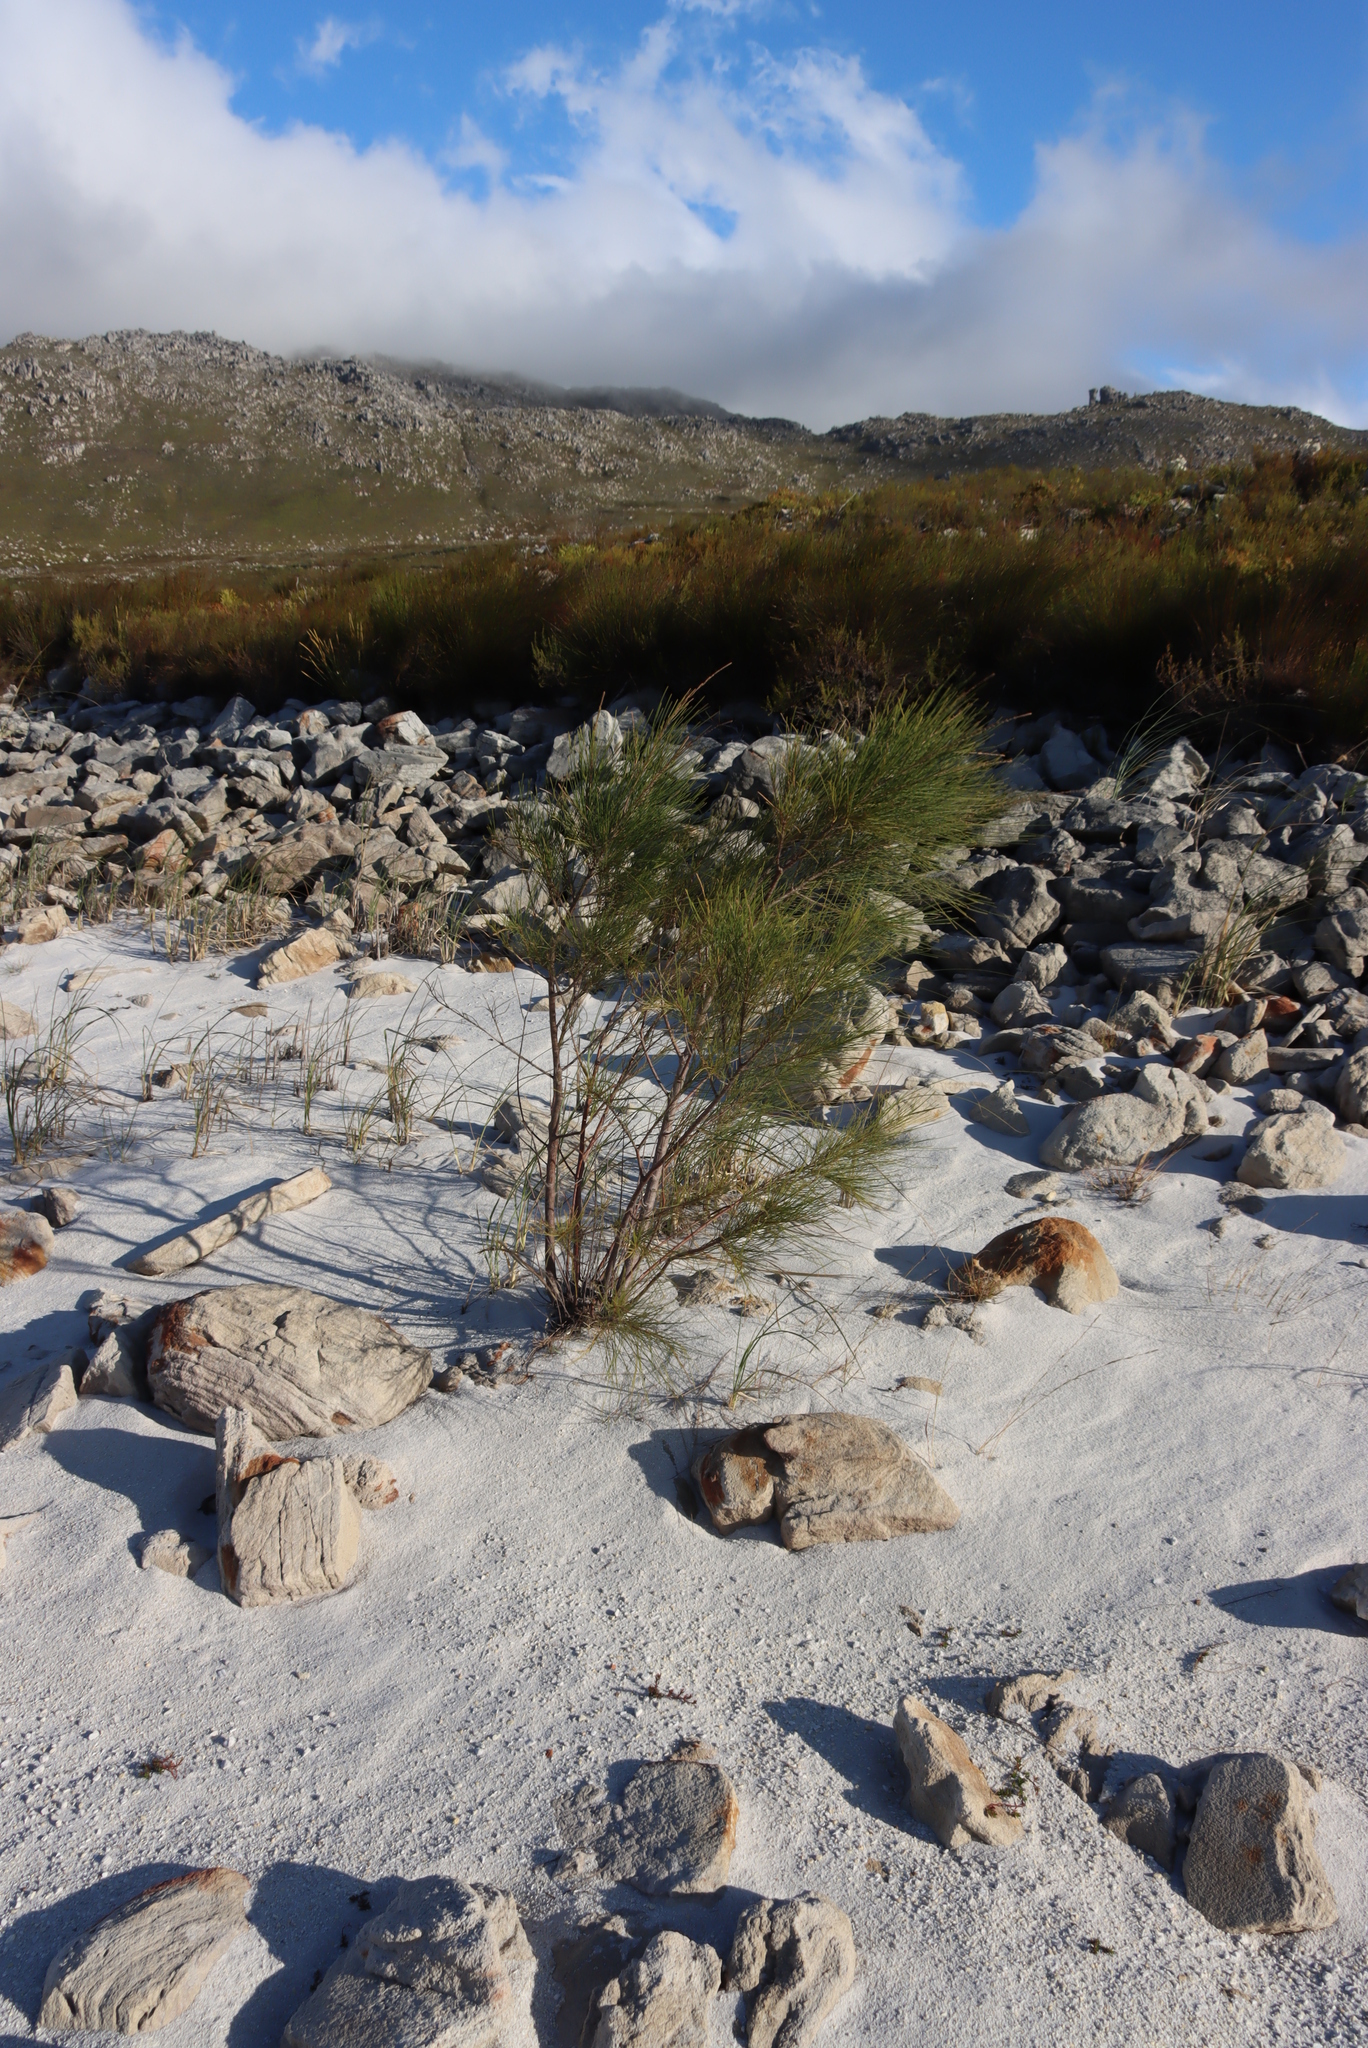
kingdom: Plantae
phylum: Tracheophyta
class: Magnoliopsida
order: Fagales
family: Casuarinaceae
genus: Casuarina
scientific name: Casuarina cunninghamiana
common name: River sheoak
